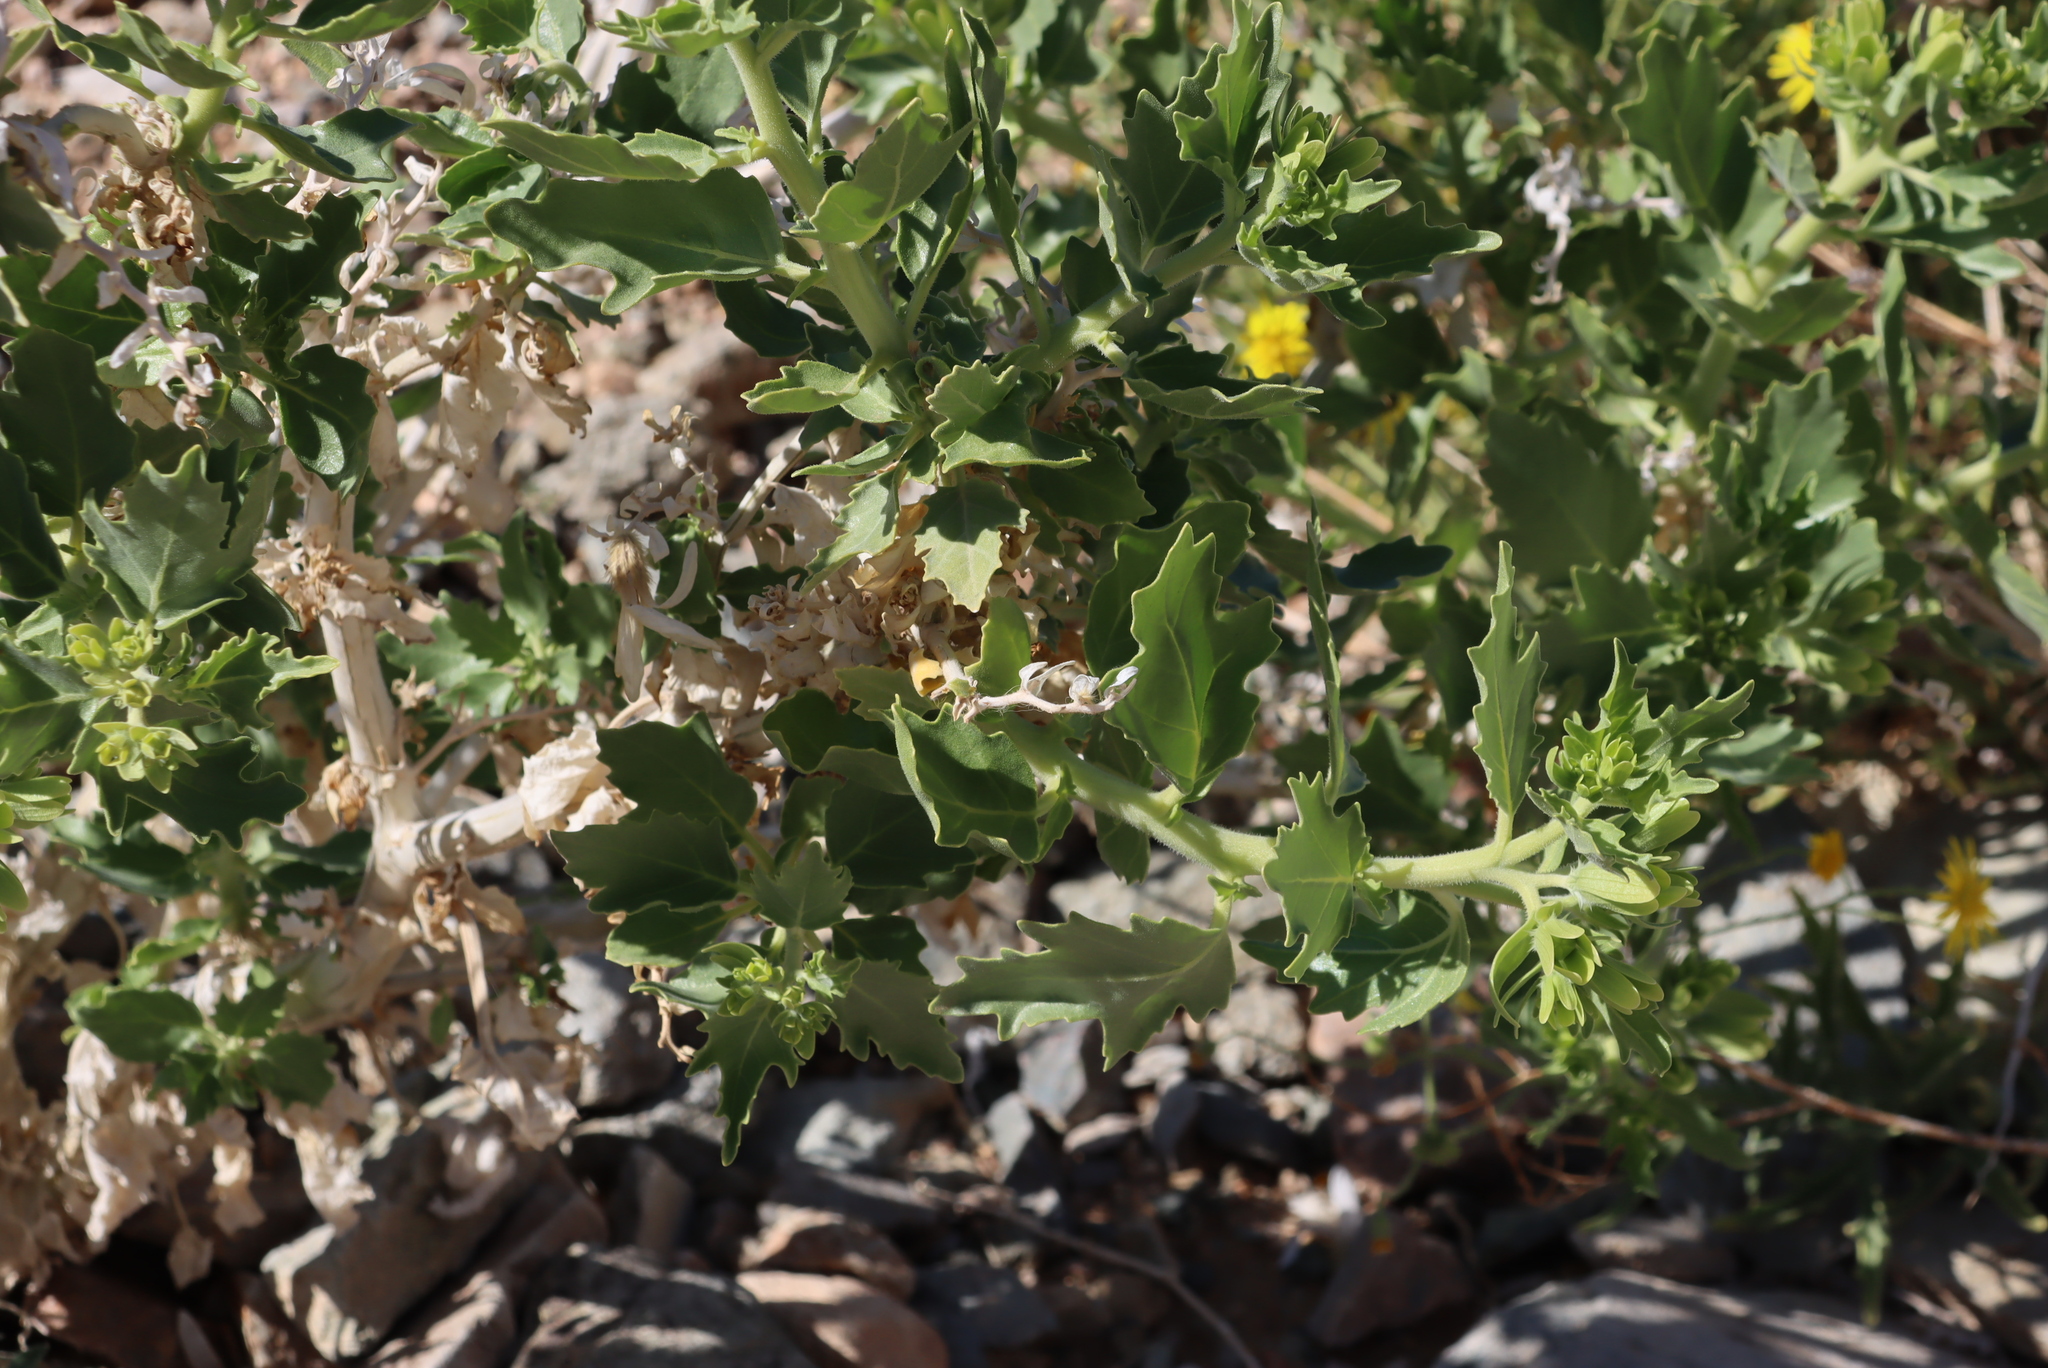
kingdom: Plantae
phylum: Tracheophyta
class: Magnoliopsida
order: Cornales
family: Loasaceae
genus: Kissenia
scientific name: Kissenia capensis
